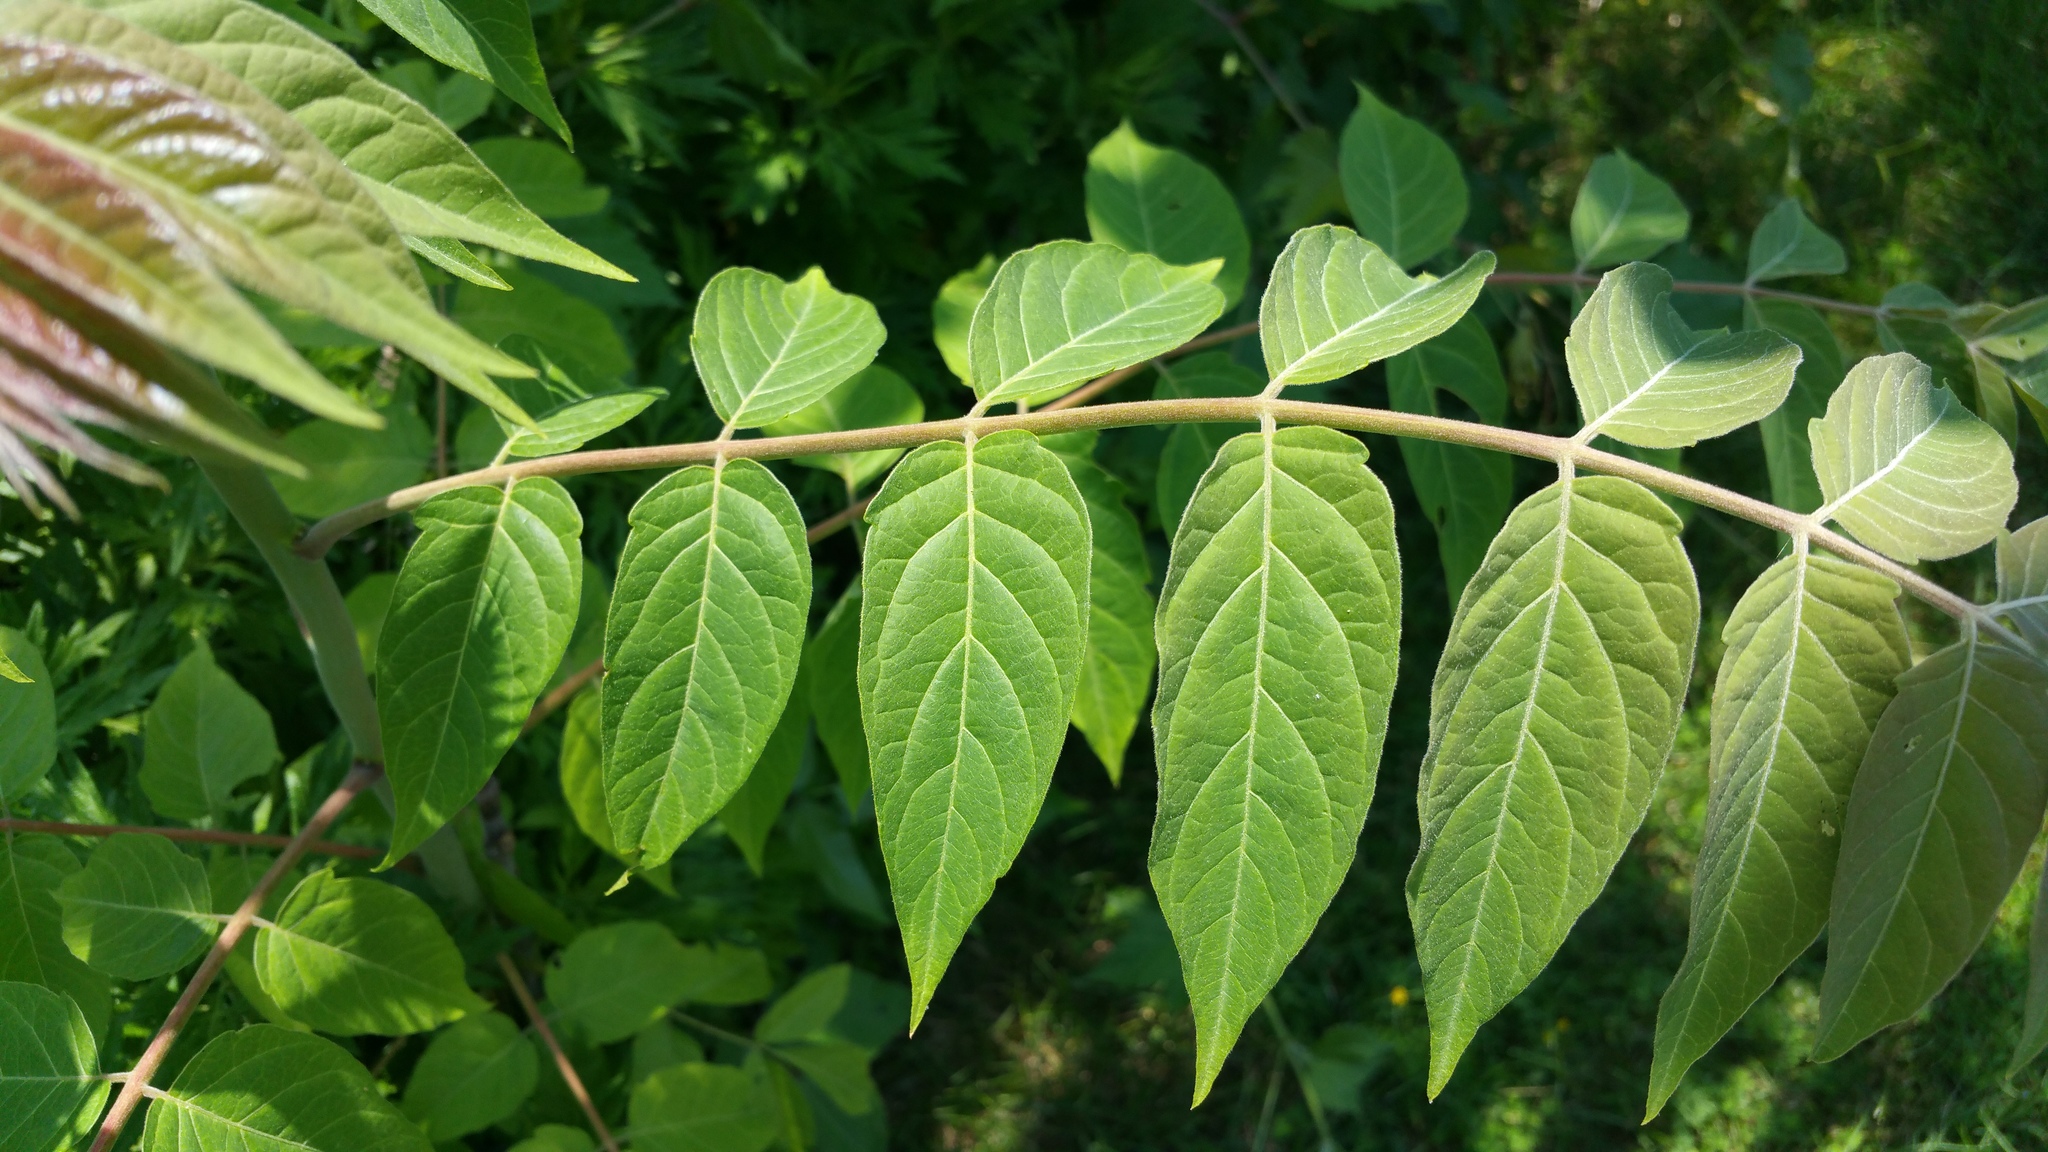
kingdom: Plantae
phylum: Tracheophyta
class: Magnoliopsida
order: Sapindales
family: Simaroubaceae
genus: Ailanthus
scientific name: Ailanthus altissima
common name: Tree-of-heaven
